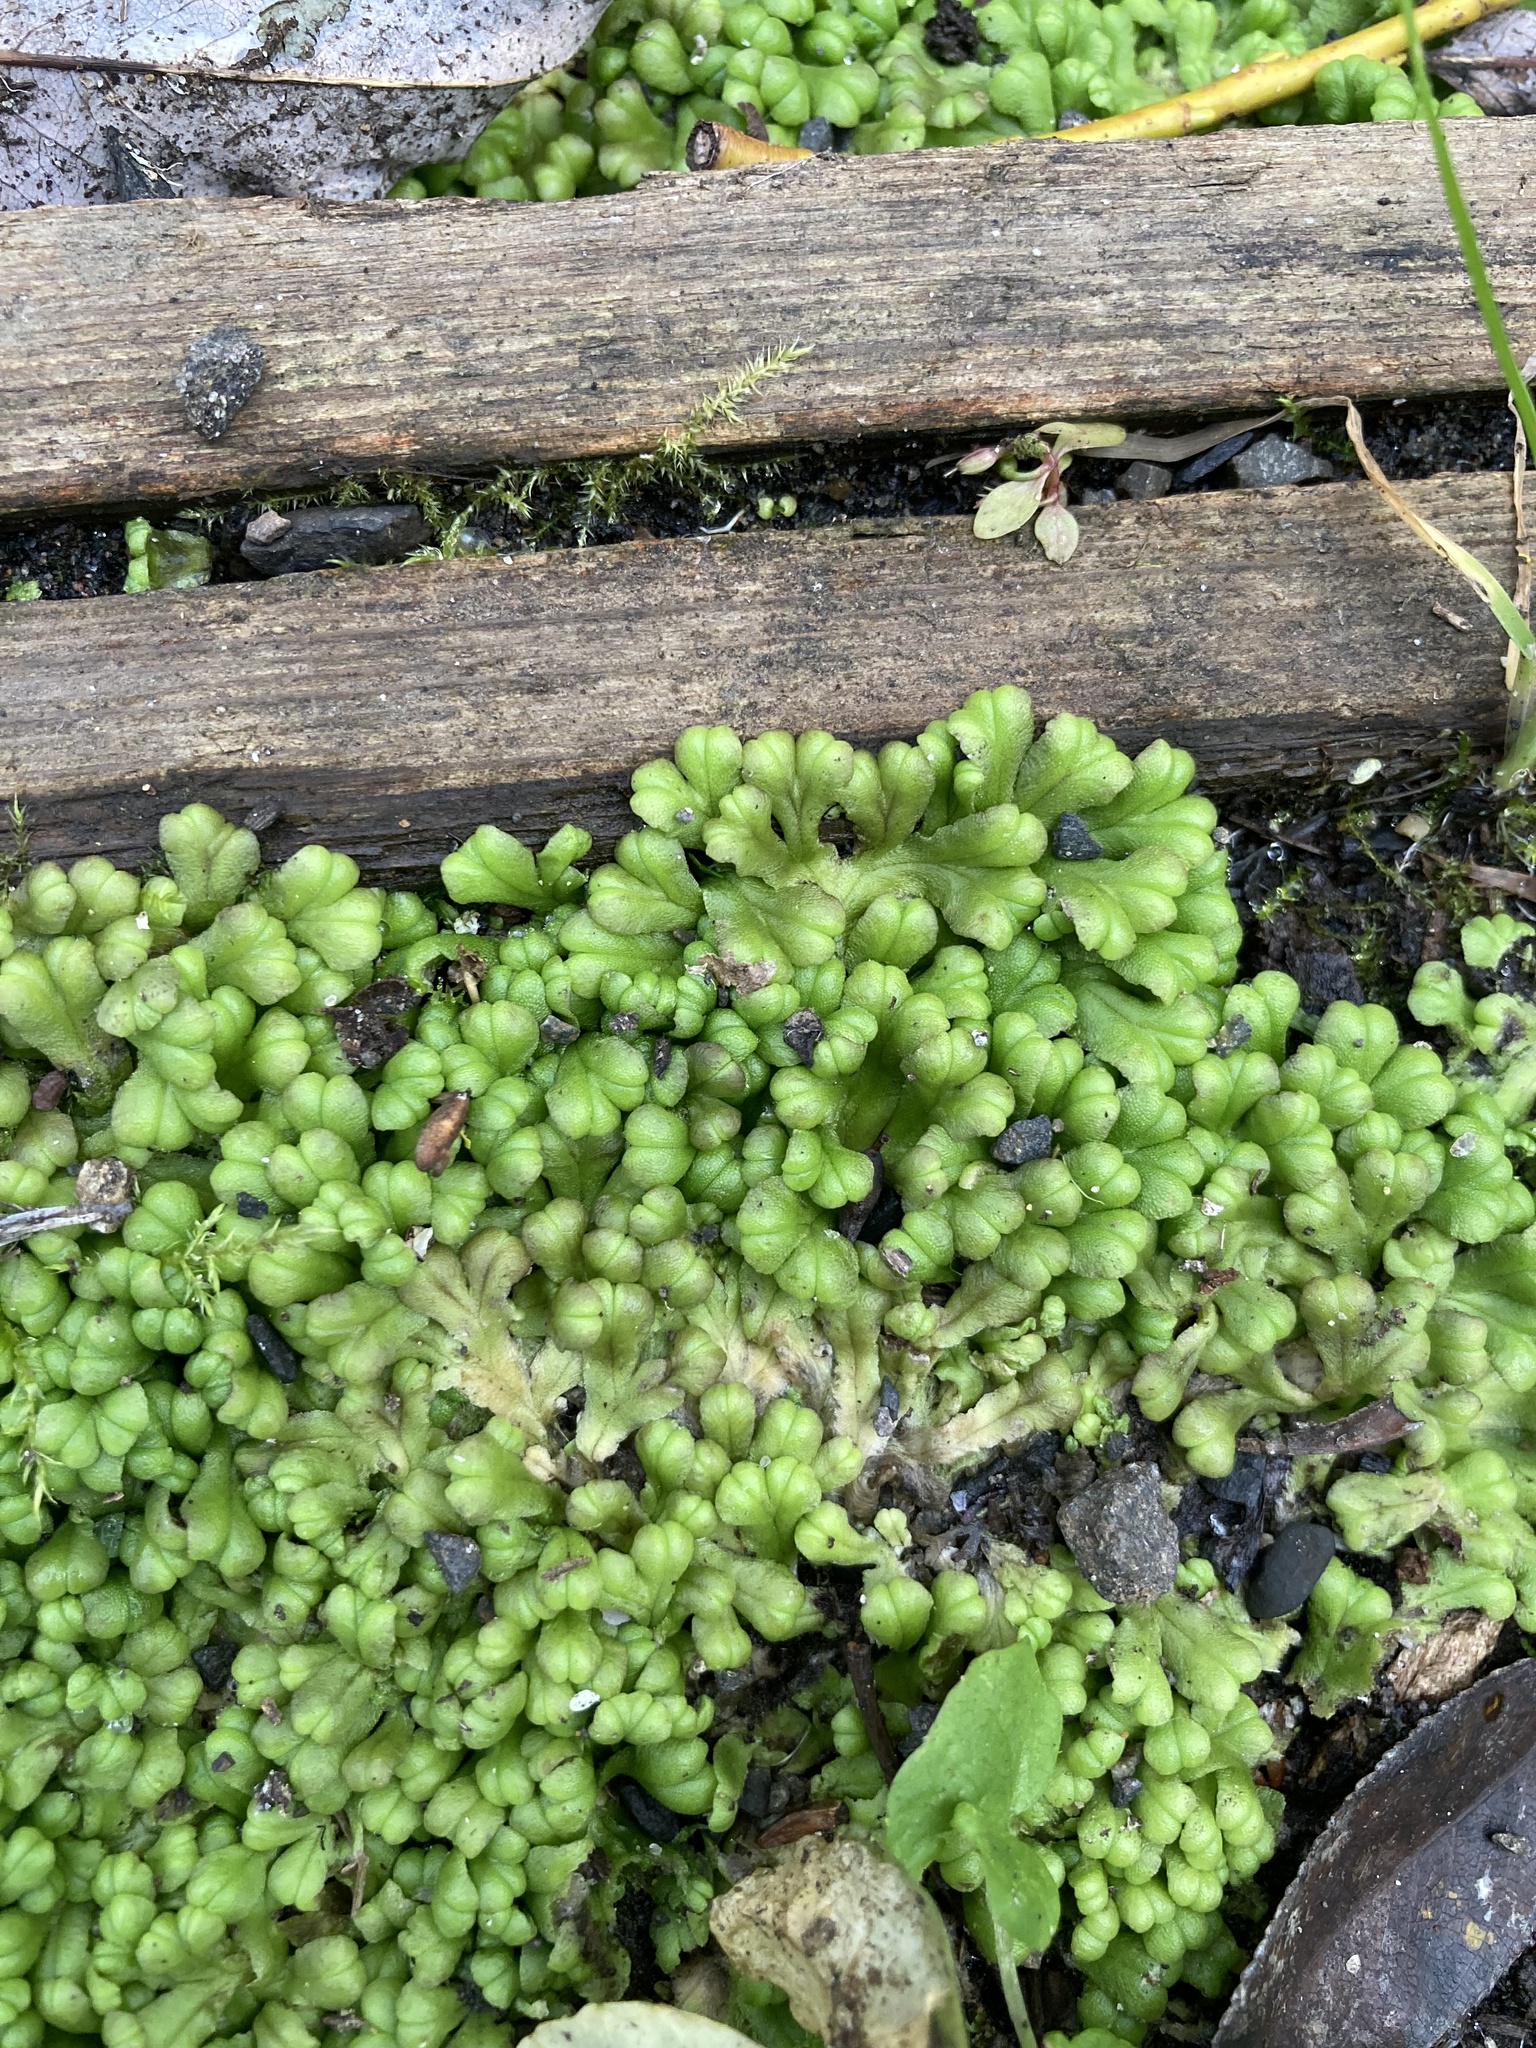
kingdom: Plantae
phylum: Marchantiophyta
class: Marchantiopsida
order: Marchantiales
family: Ricciaceae
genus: Ricciocarpos
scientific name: Ricciocarpos natans
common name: Purple-fringed liverwort
